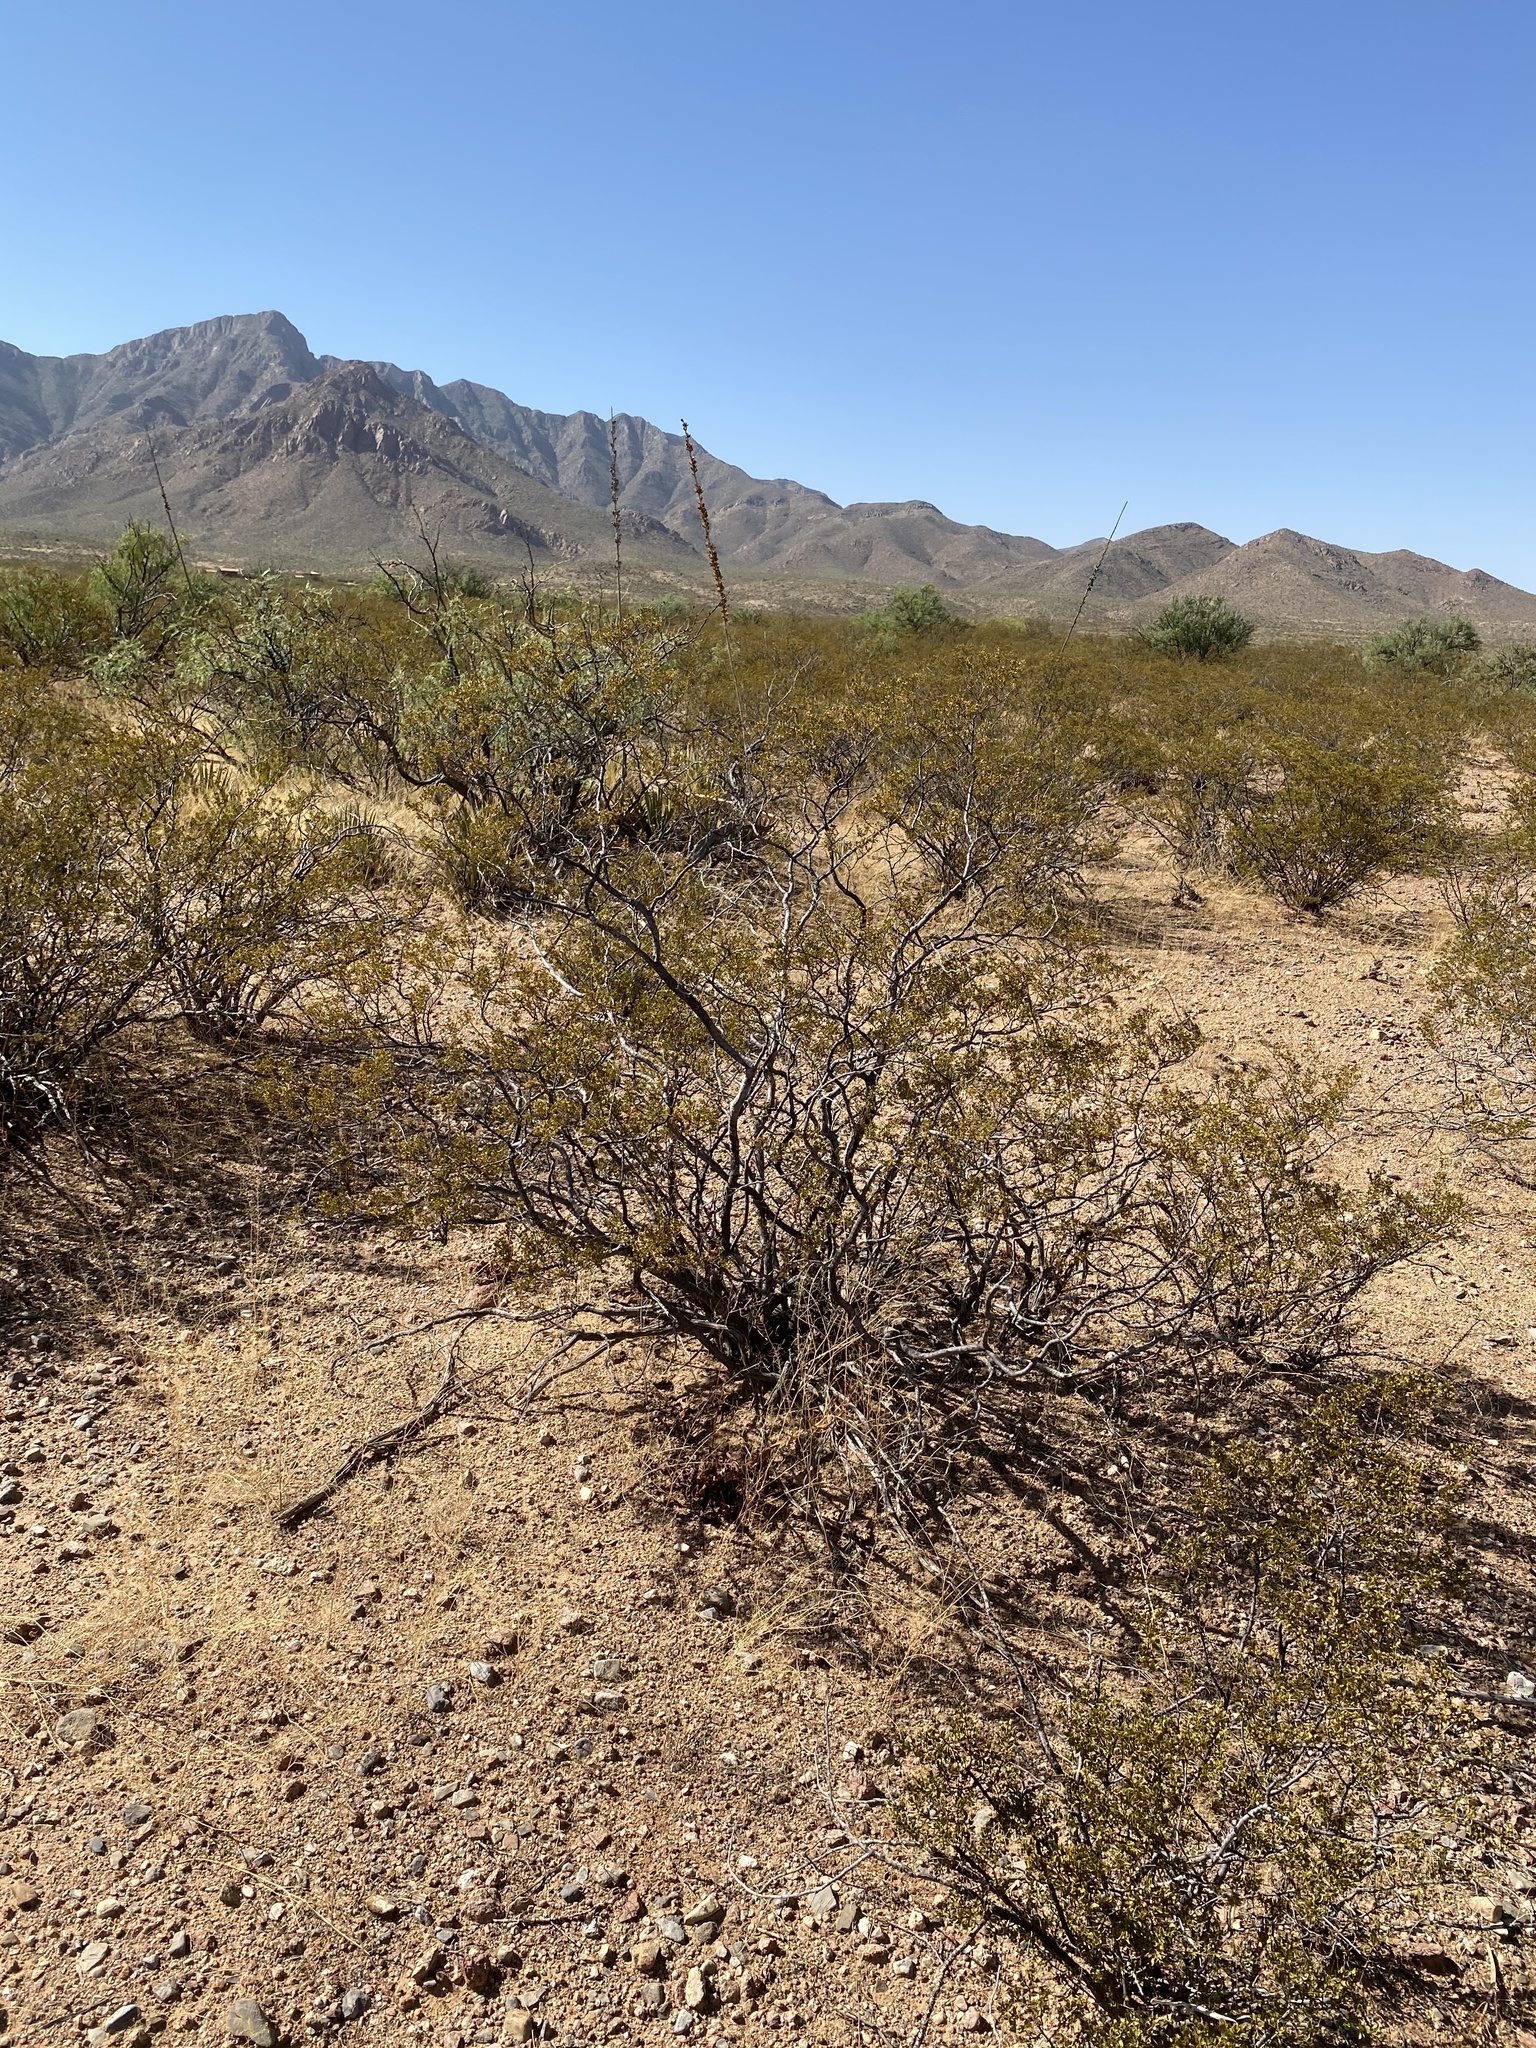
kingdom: Plantae
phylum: Tracheophyta
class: Magnoliopsida
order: Zygophyllales
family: Zygophyllaceae
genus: Larrea
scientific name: Larrea tridentata
